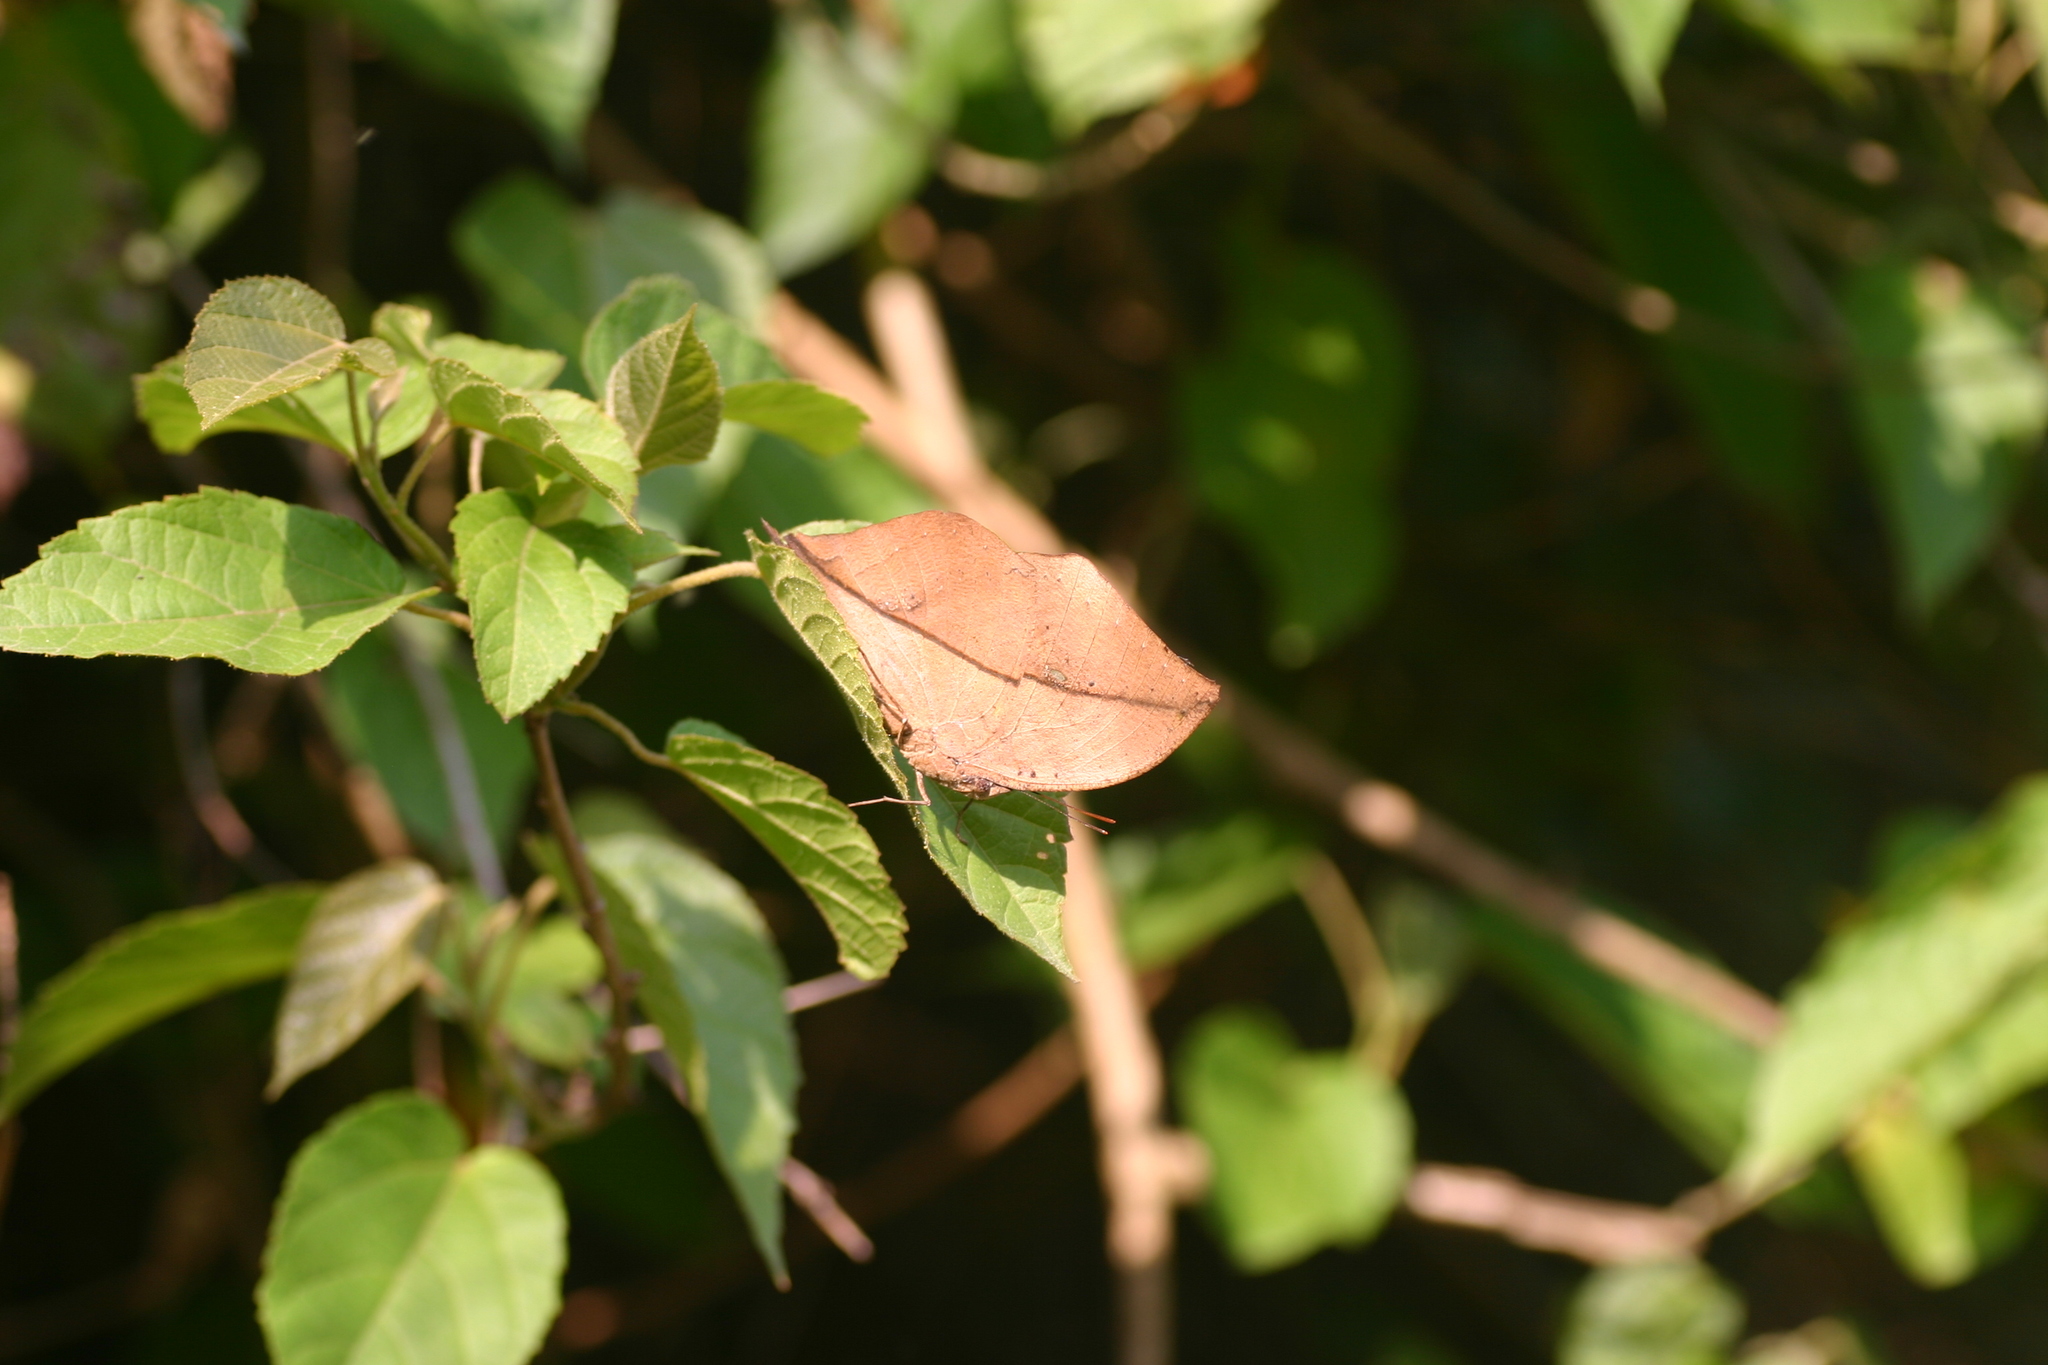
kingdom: Animalia
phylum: Arthropoda
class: Insecta
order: Lepidoptera
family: Nymphalidae
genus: Kallima
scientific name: Kallima inachus
